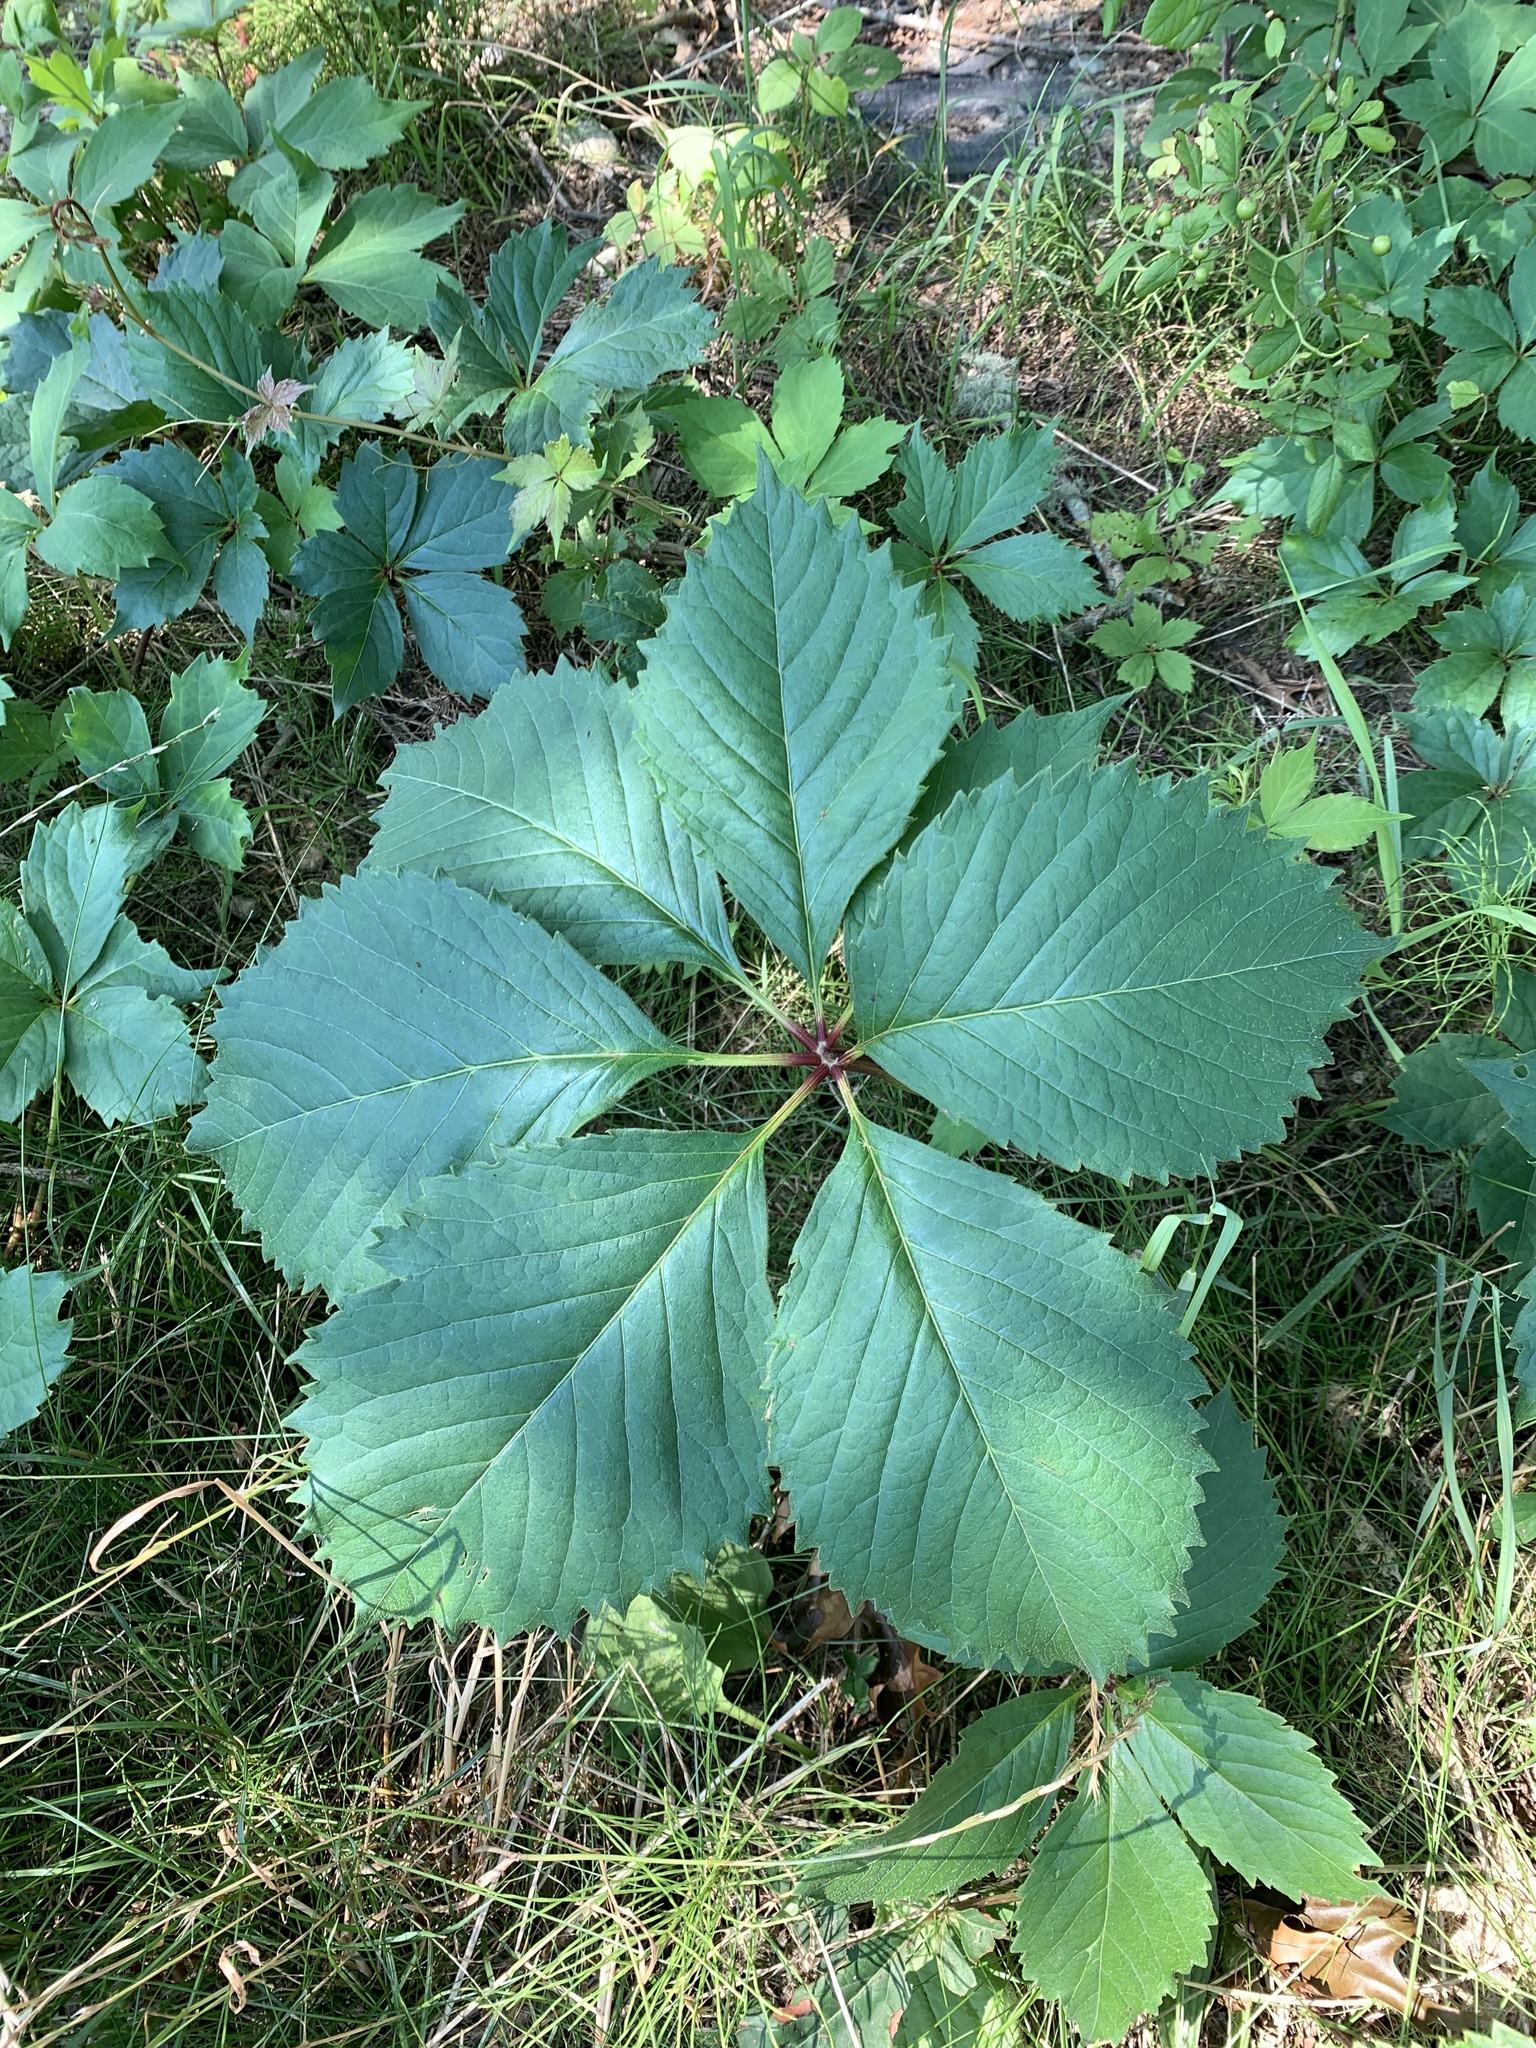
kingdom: Plantae
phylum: Tracheophyta
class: Magnoliopsida
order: Vitales
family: Vitaceae
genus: Parthenocissus
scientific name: Parthenocissus quinquefolia
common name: Virginia-creeper
